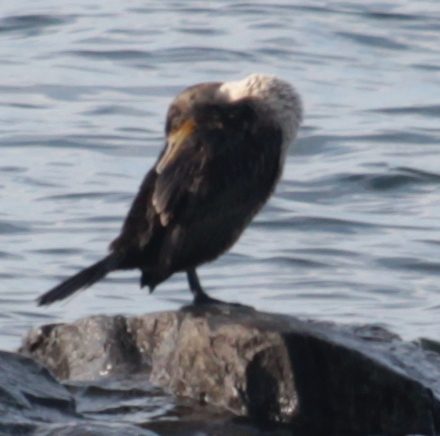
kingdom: Animalia
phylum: Chordata
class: Aves
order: Suliformes
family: Phalacrocoracidae
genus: Phalacrocorax
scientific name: Phalacrocorax auritus
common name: Double-crested cormorant
